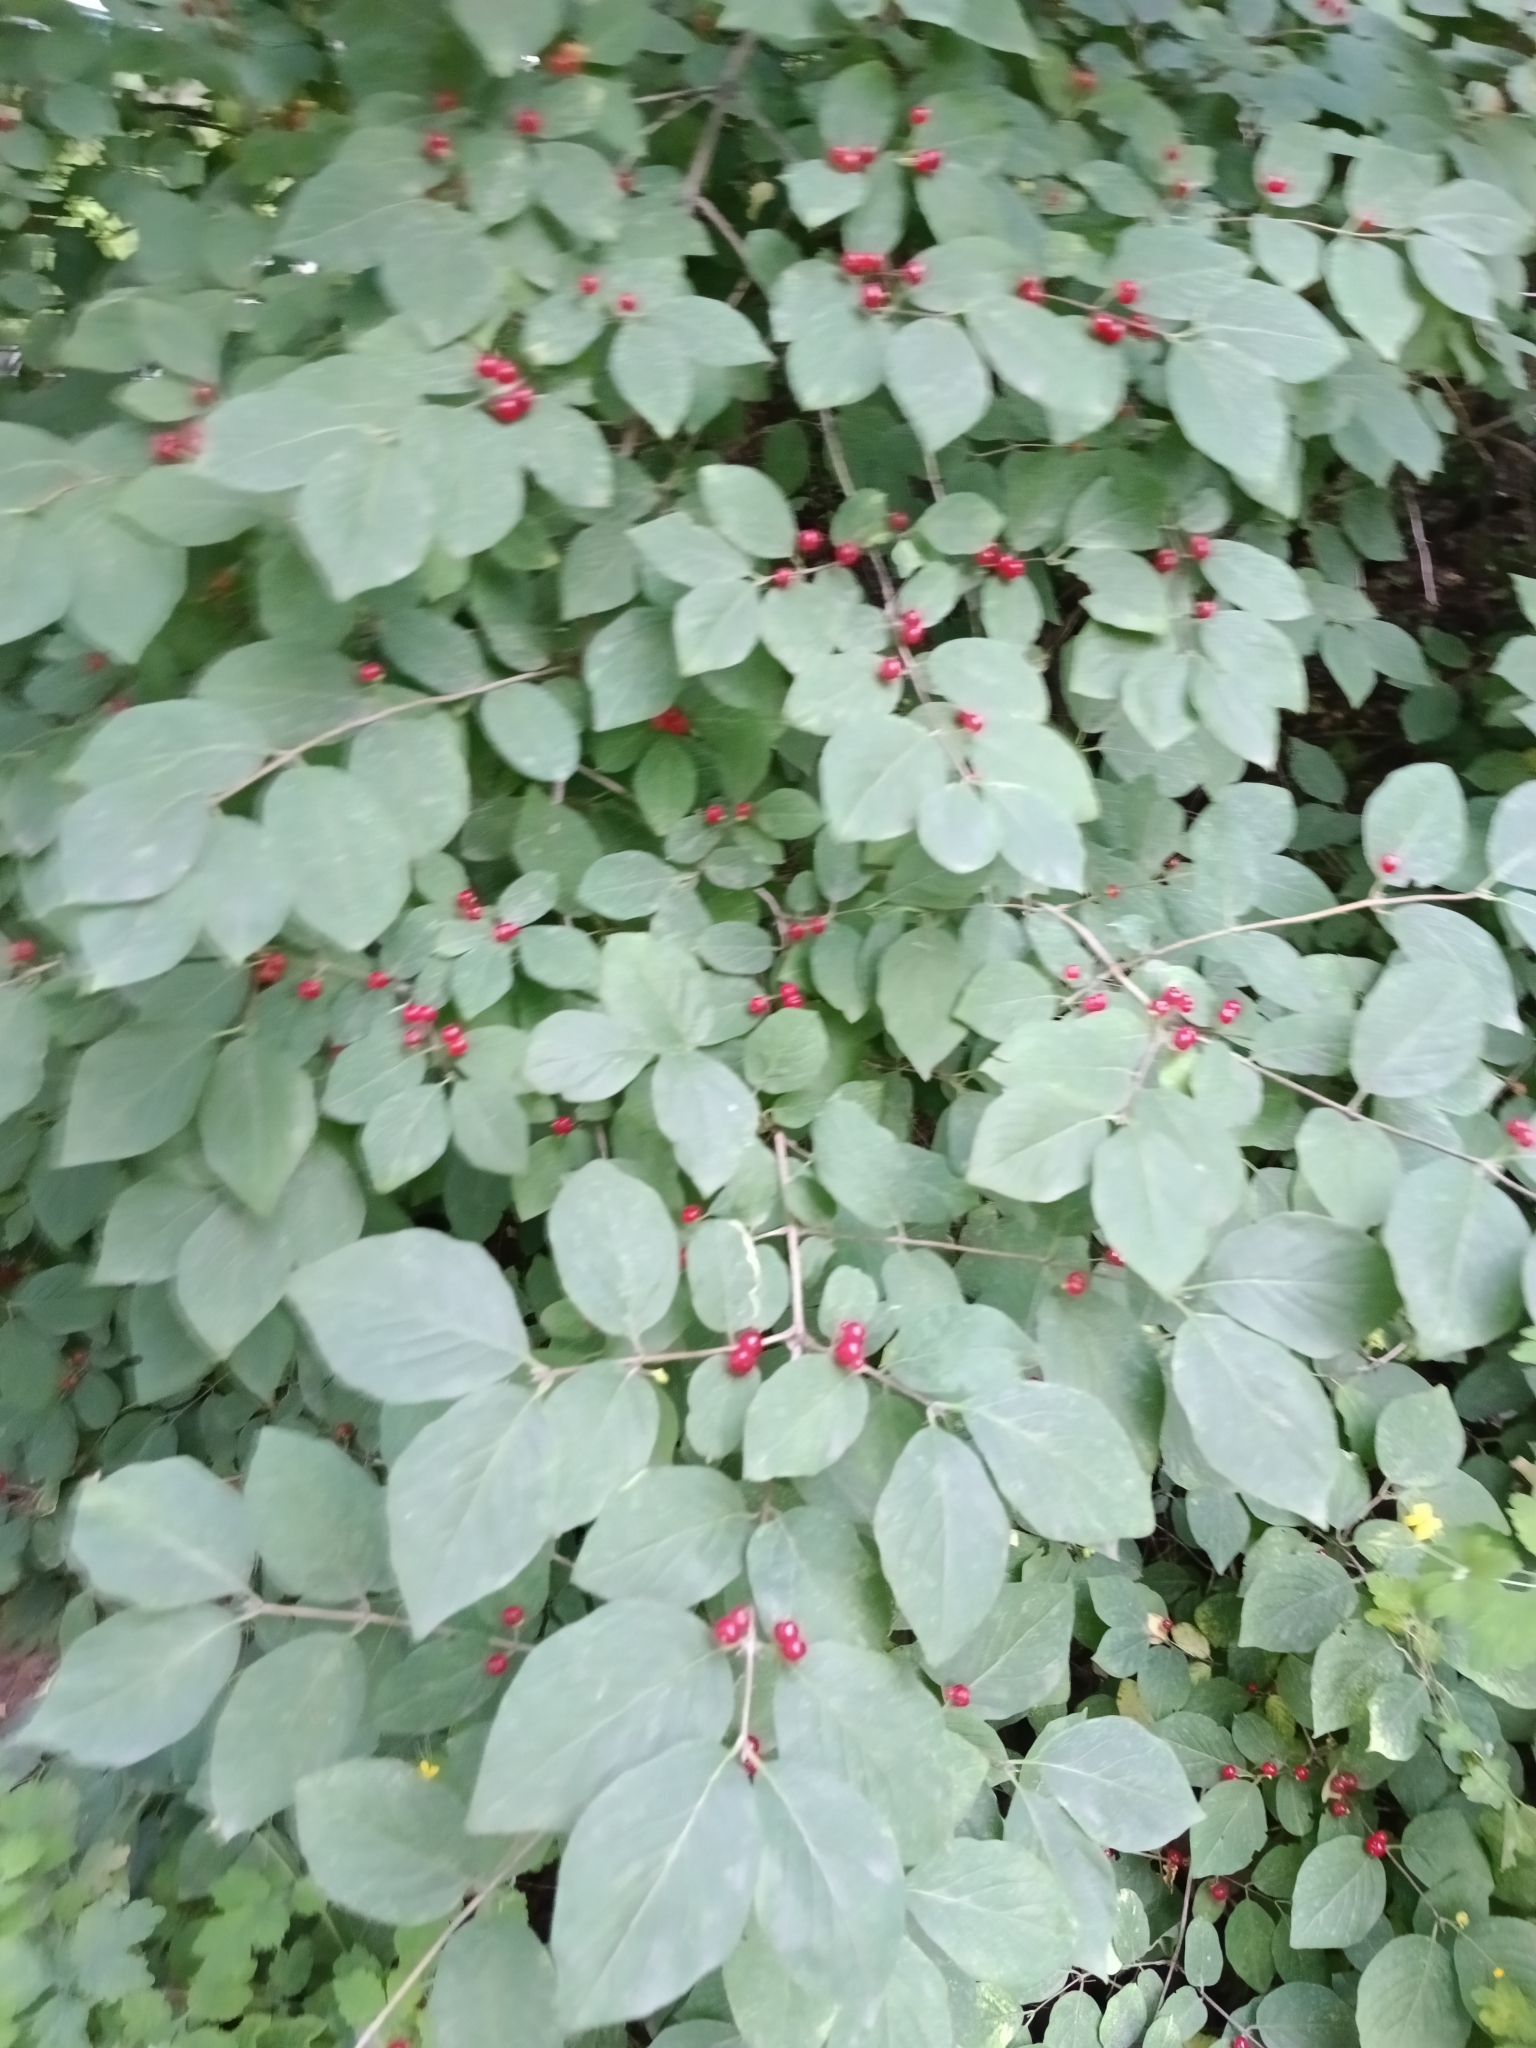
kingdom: Plantae
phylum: Tracheophyta
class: Magnoliopsida
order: Dipsacales
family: Caprifoliaceae
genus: Lonicera
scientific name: Lonicera xylosteum
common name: Fly honeysuckle
